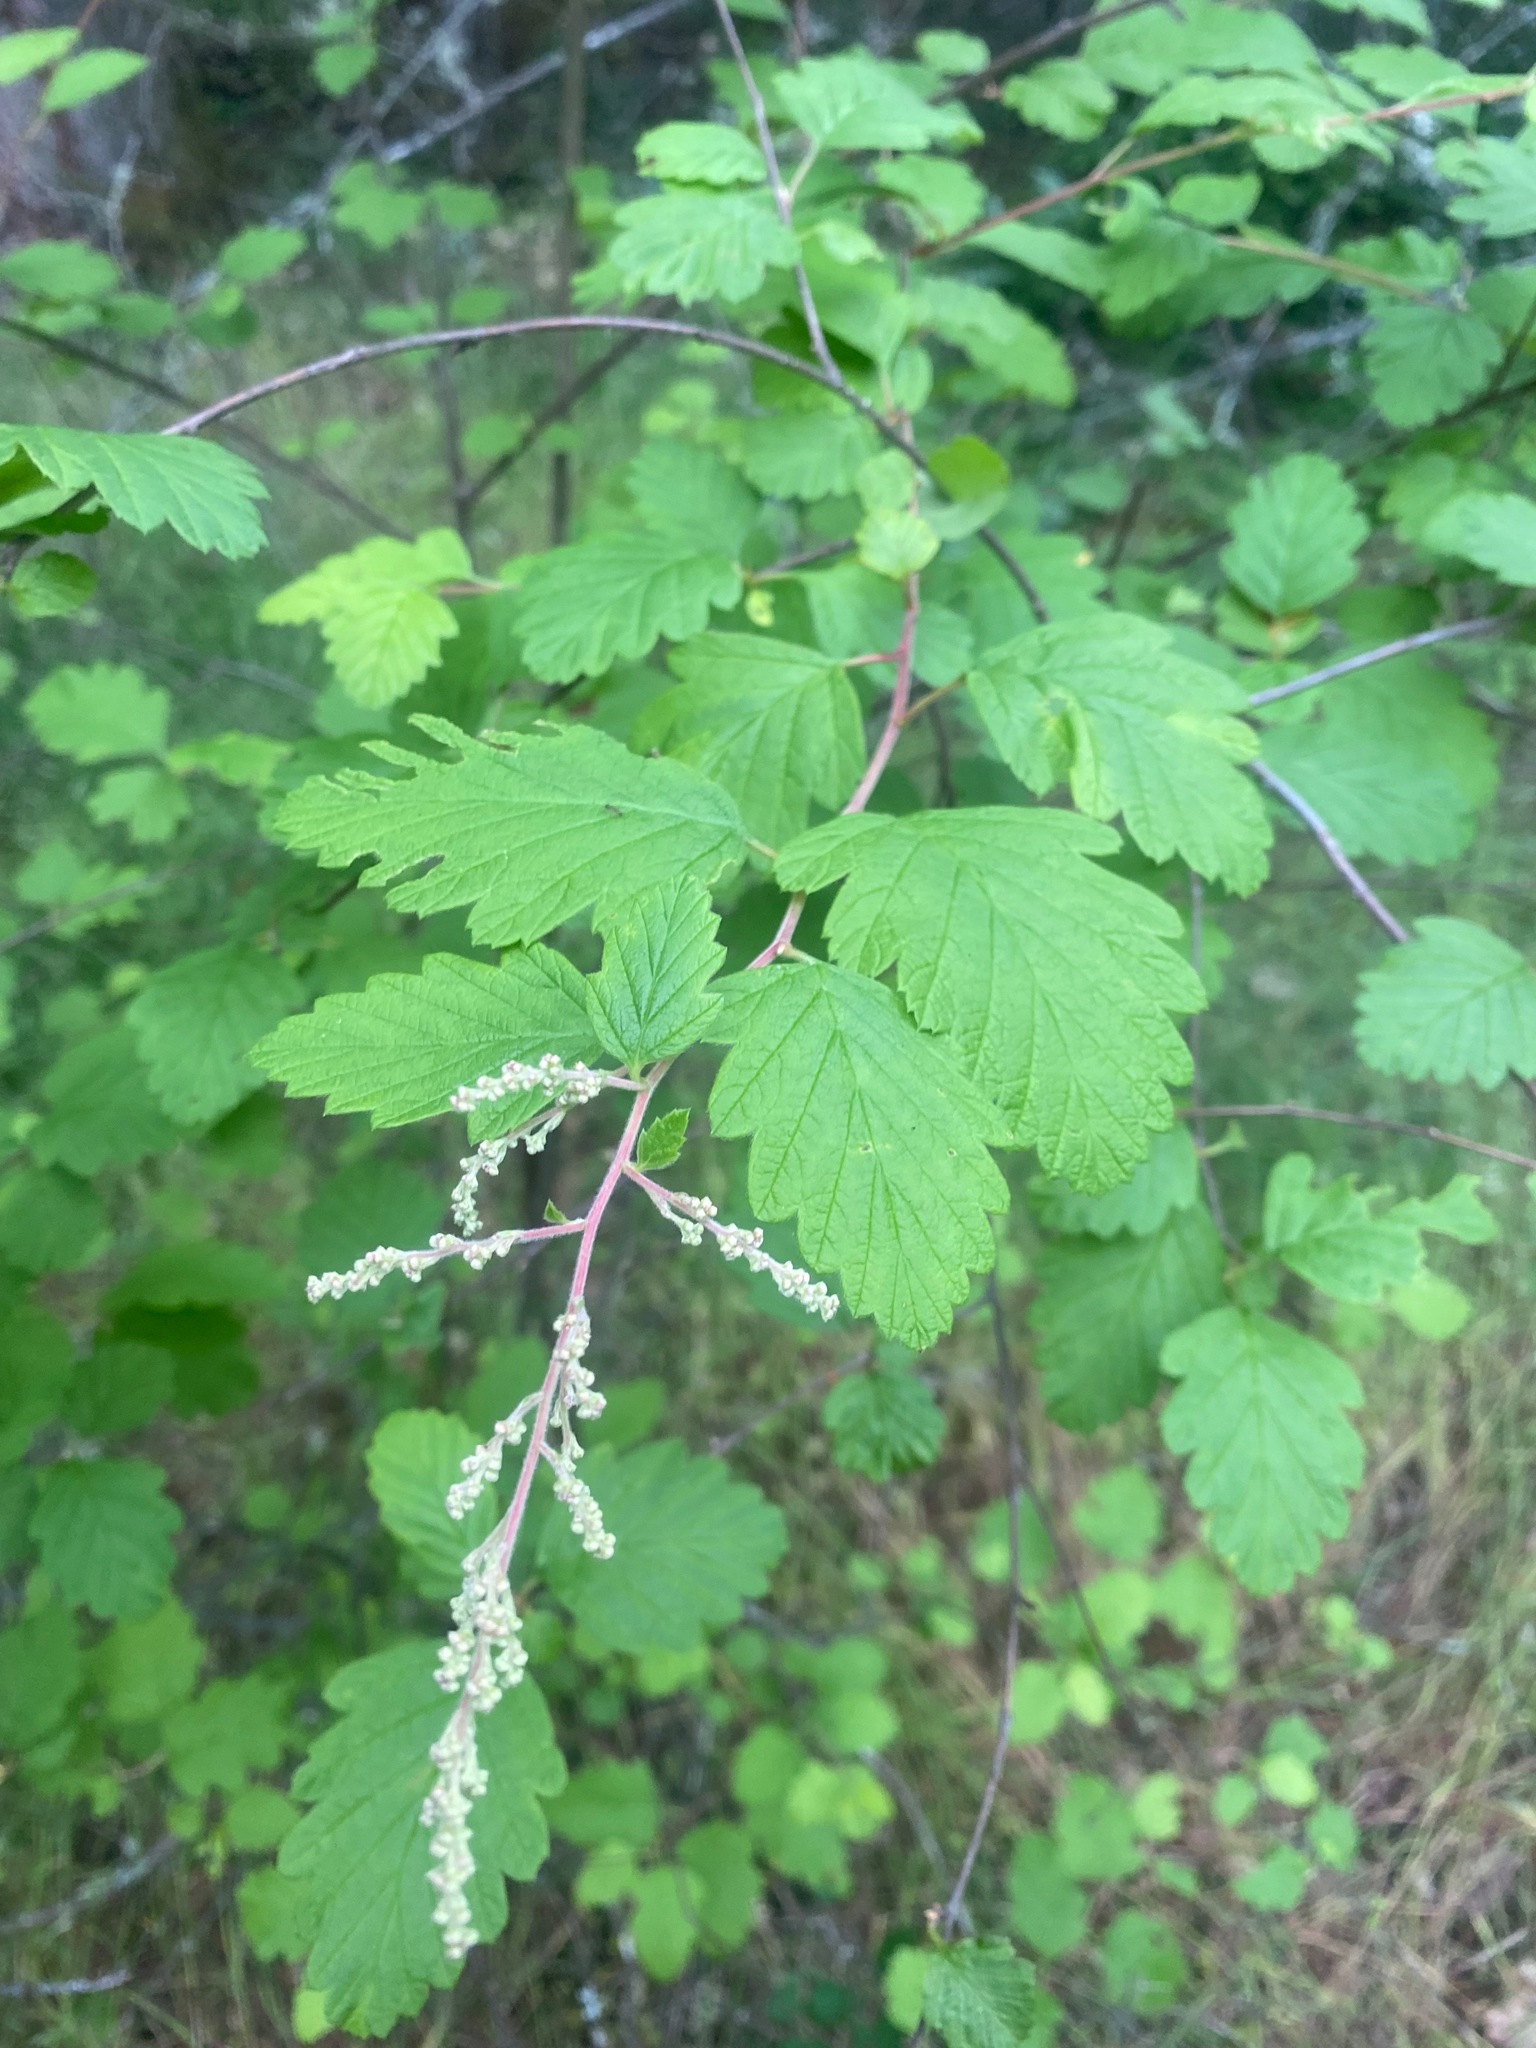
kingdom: Plantae
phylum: Tracheophyta
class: Magnoliopsida
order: Rosales
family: Rosaceae
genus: Holodiscus
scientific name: Holodiscus discolor
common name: Oceanspray
